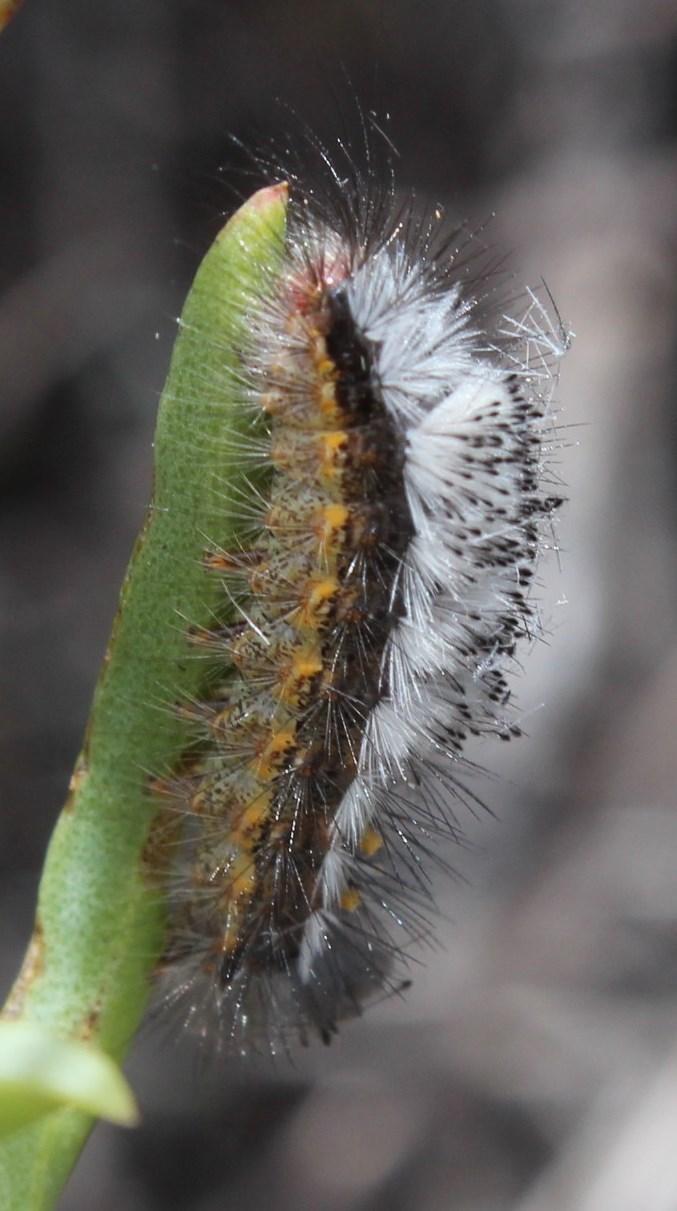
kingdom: Animalia
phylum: Arthropoda
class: Insecta
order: Lepidoptera
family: Erebidae
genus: Orgyia
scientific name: Orgyia tricolor
